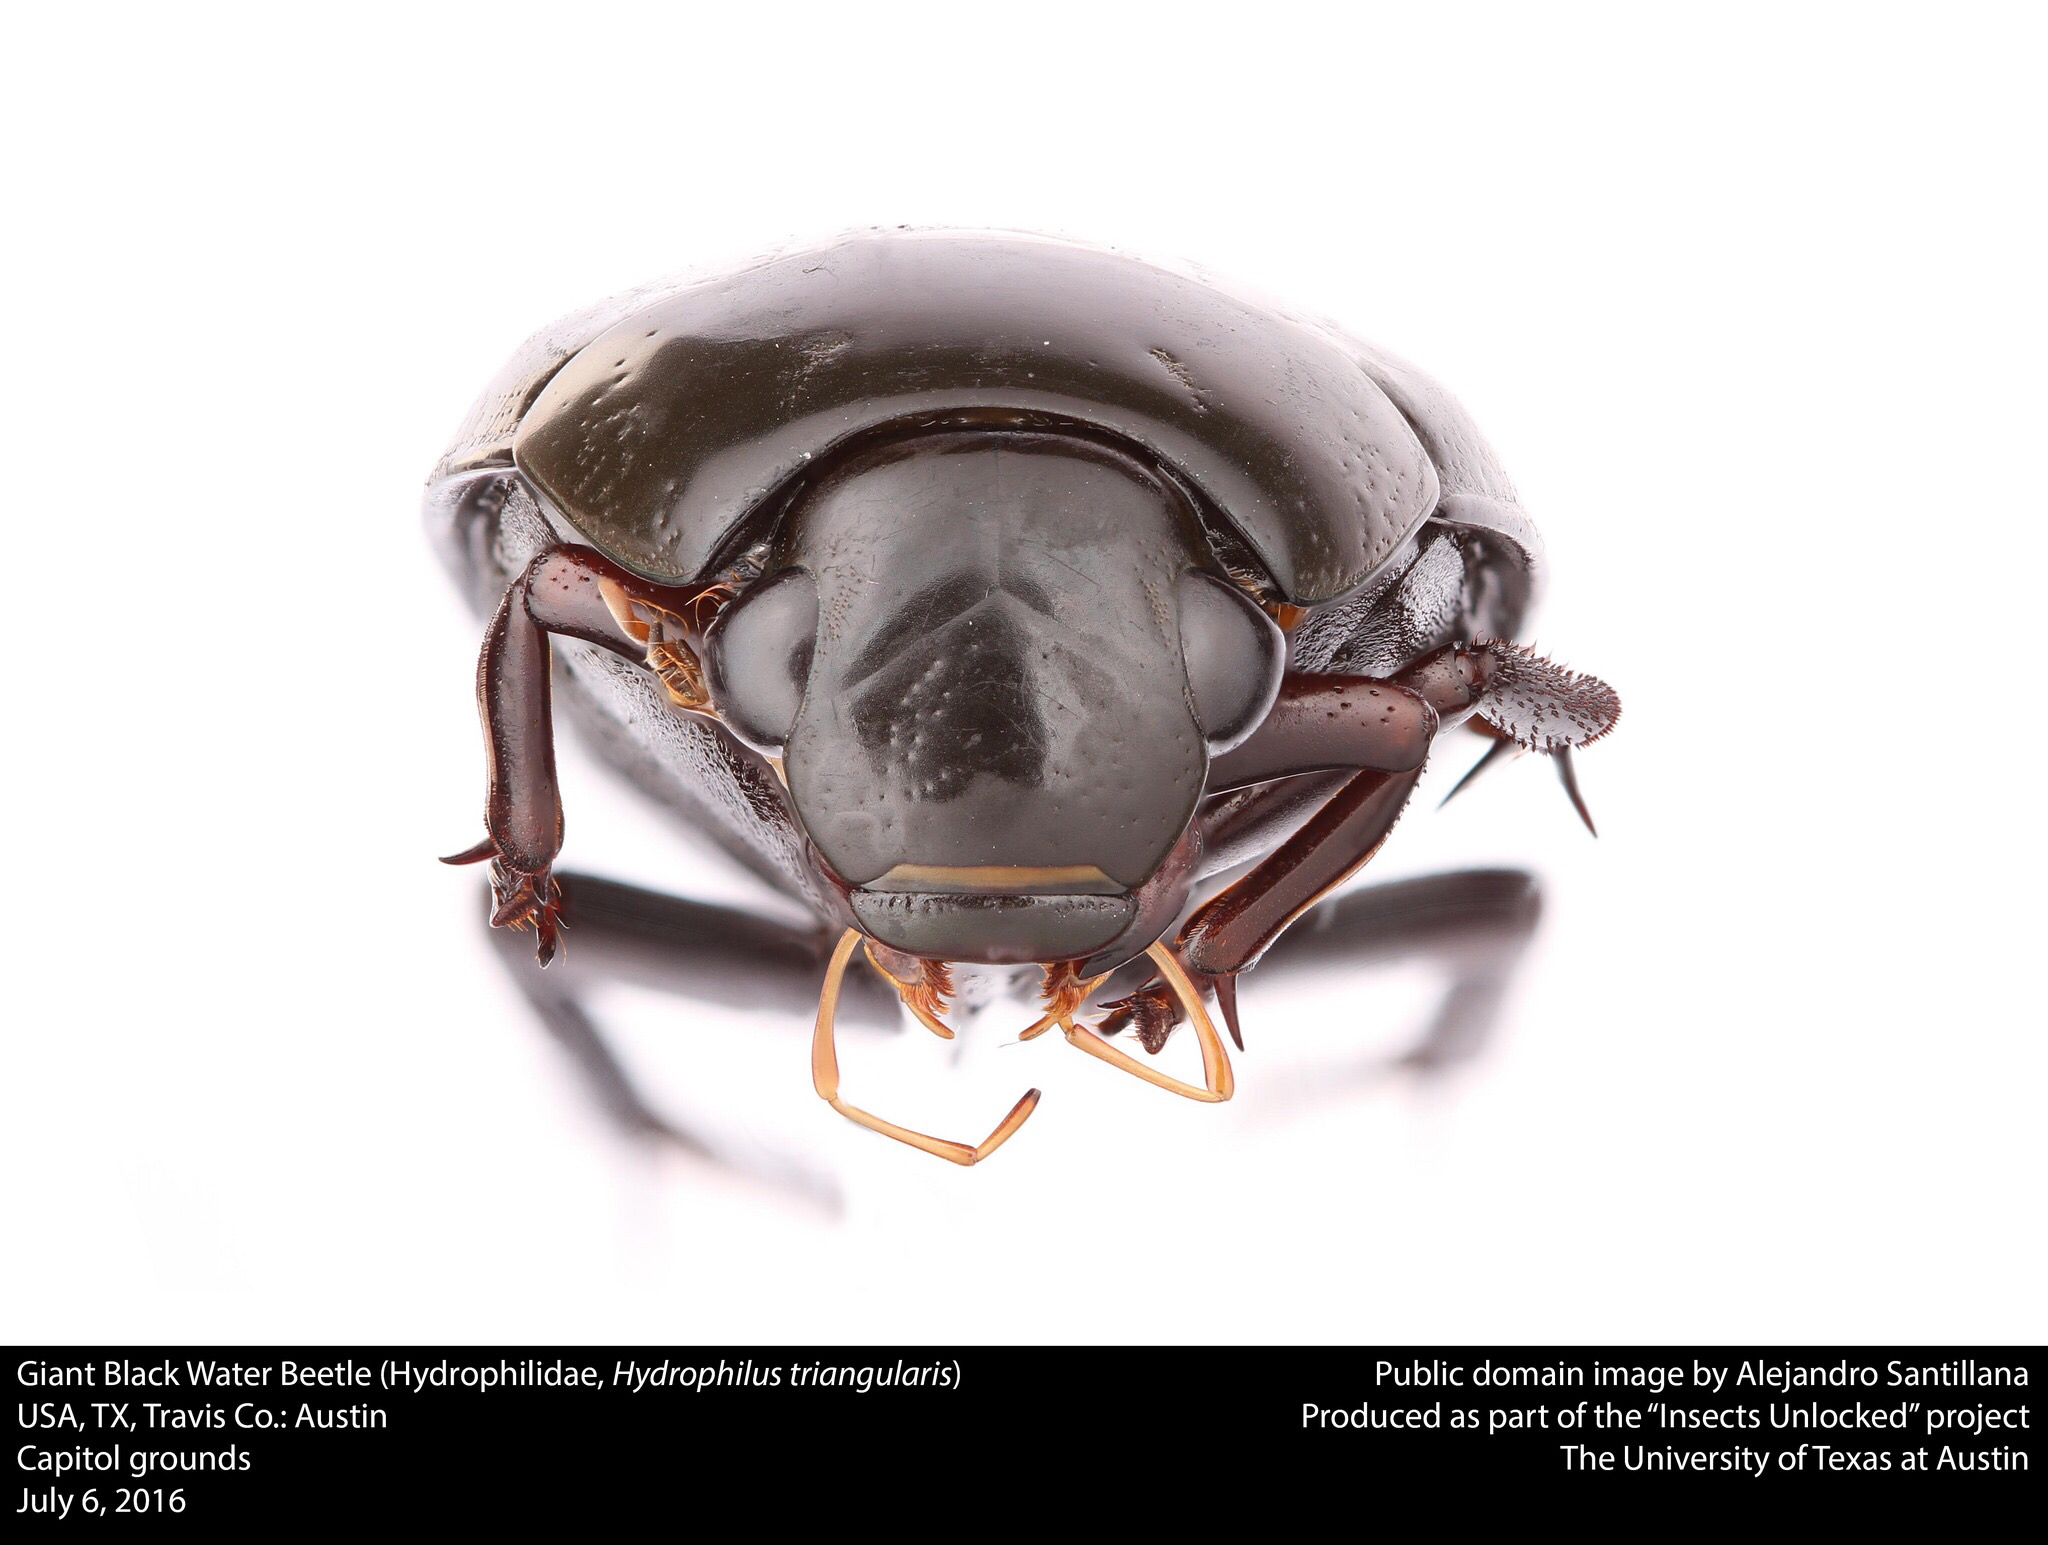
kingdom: Animalia
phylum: Arthropoda
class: Insecta
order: Coleoptera
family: Hydrophilidae
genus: Hydrophilus
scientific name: Hydrophilus triangularis
